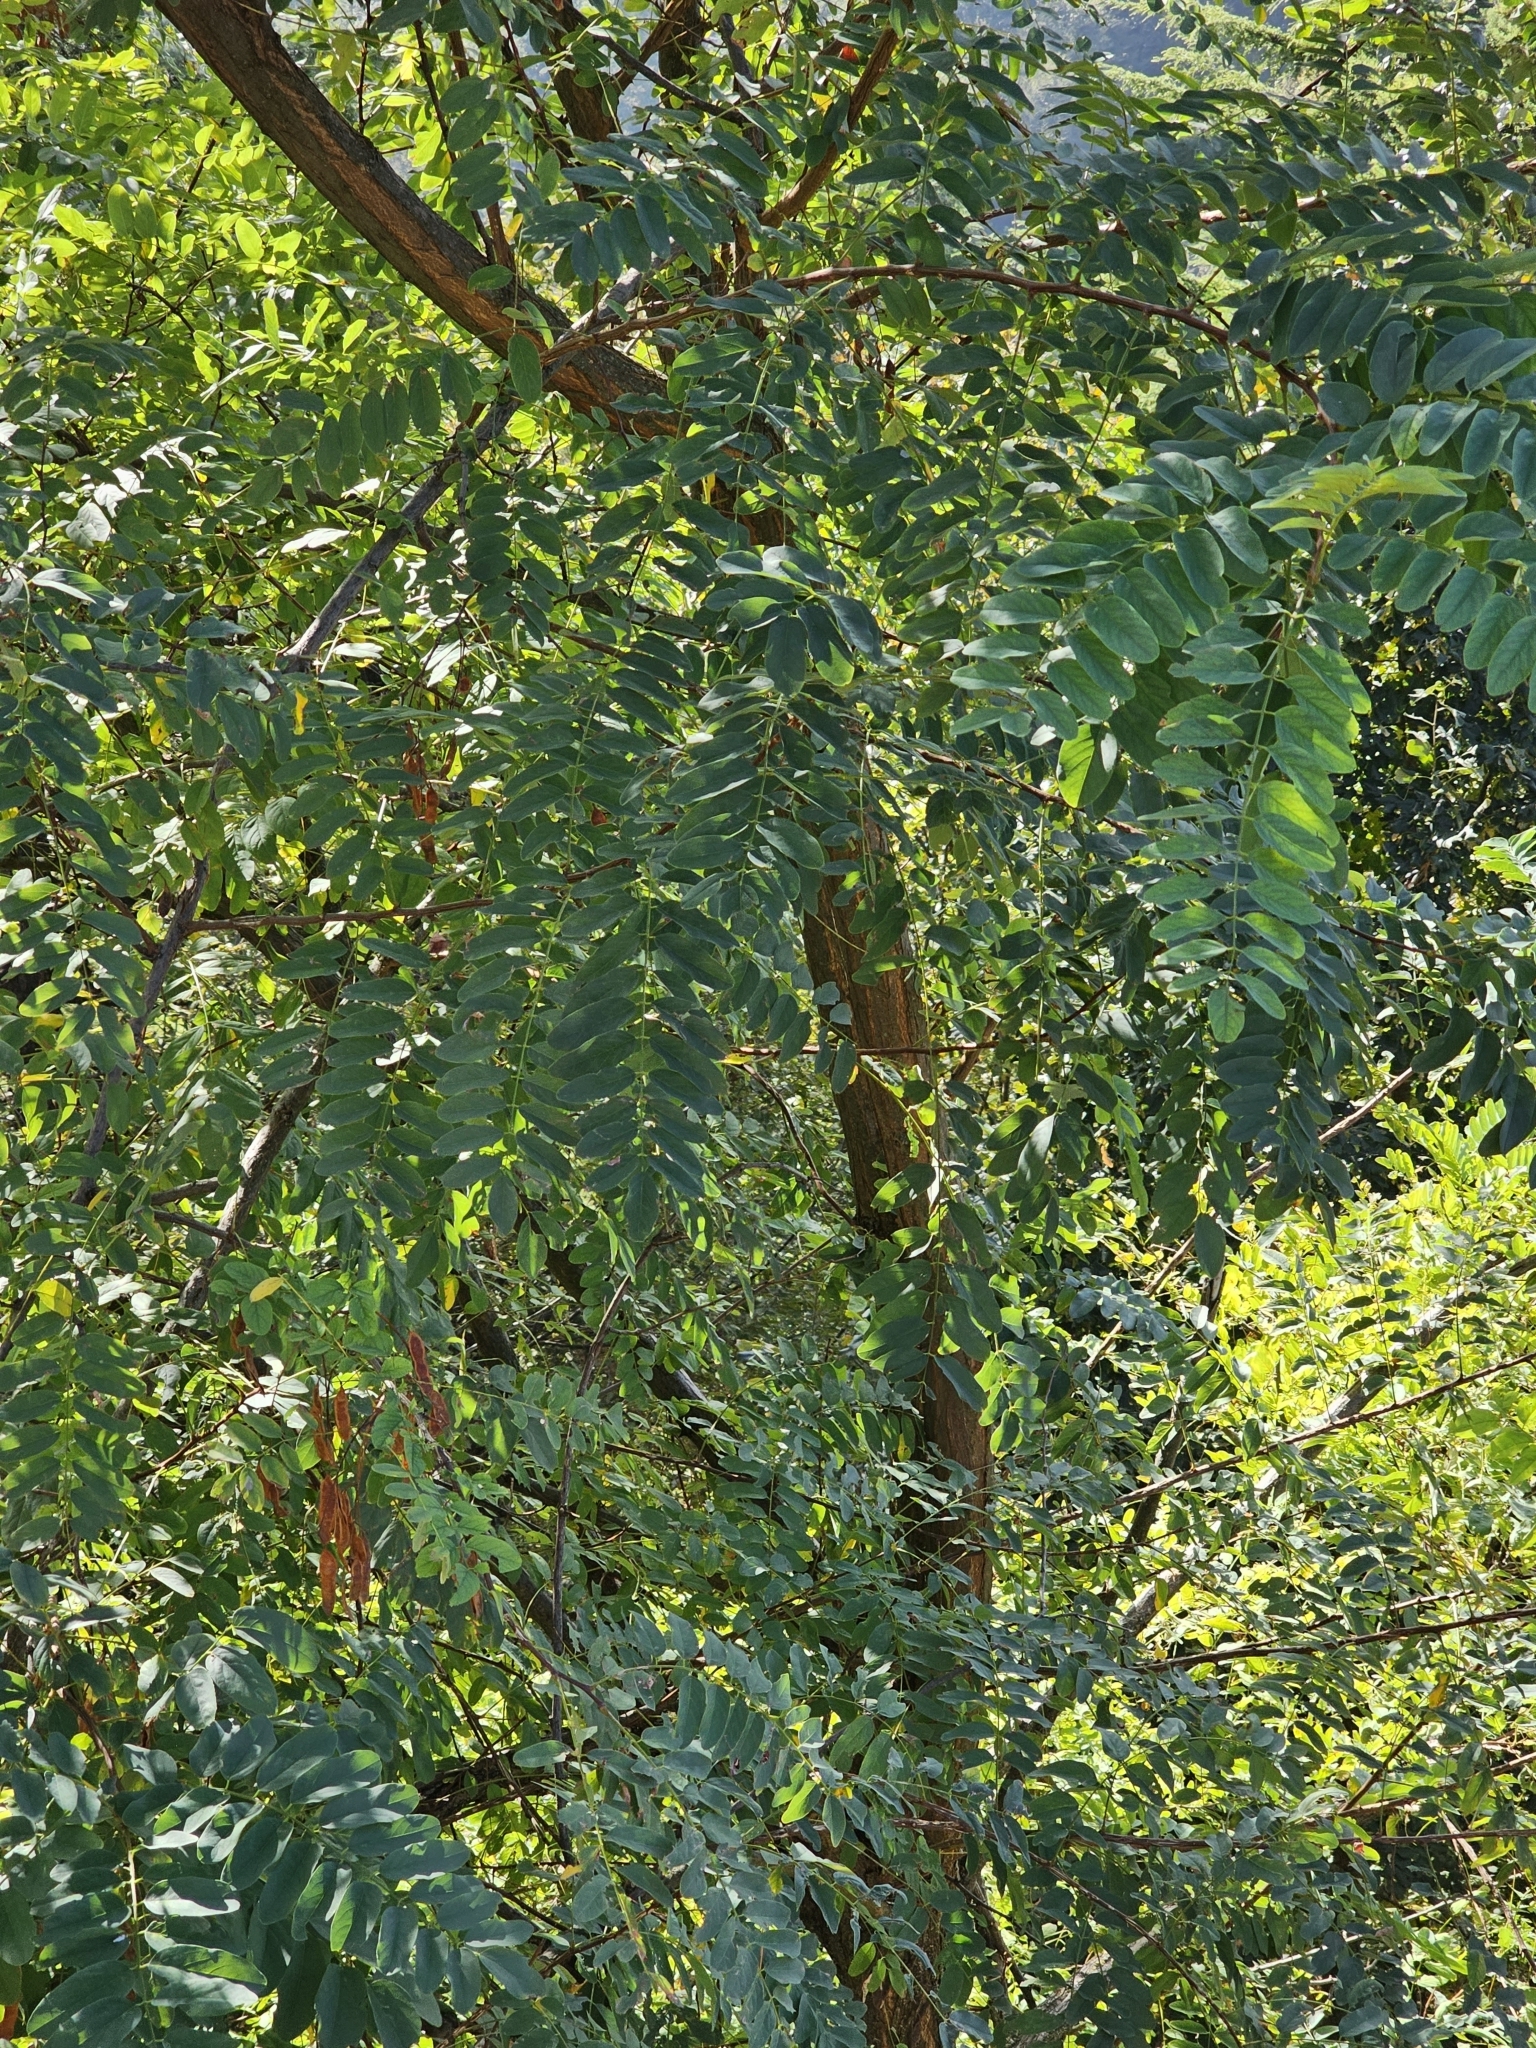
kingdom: Plantae
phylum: Tracheophyta
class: Magnoliopsida
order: Fabales
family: Fabaceae
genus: Robinia
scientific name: Robinia pseudoacacia
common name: Black locust
